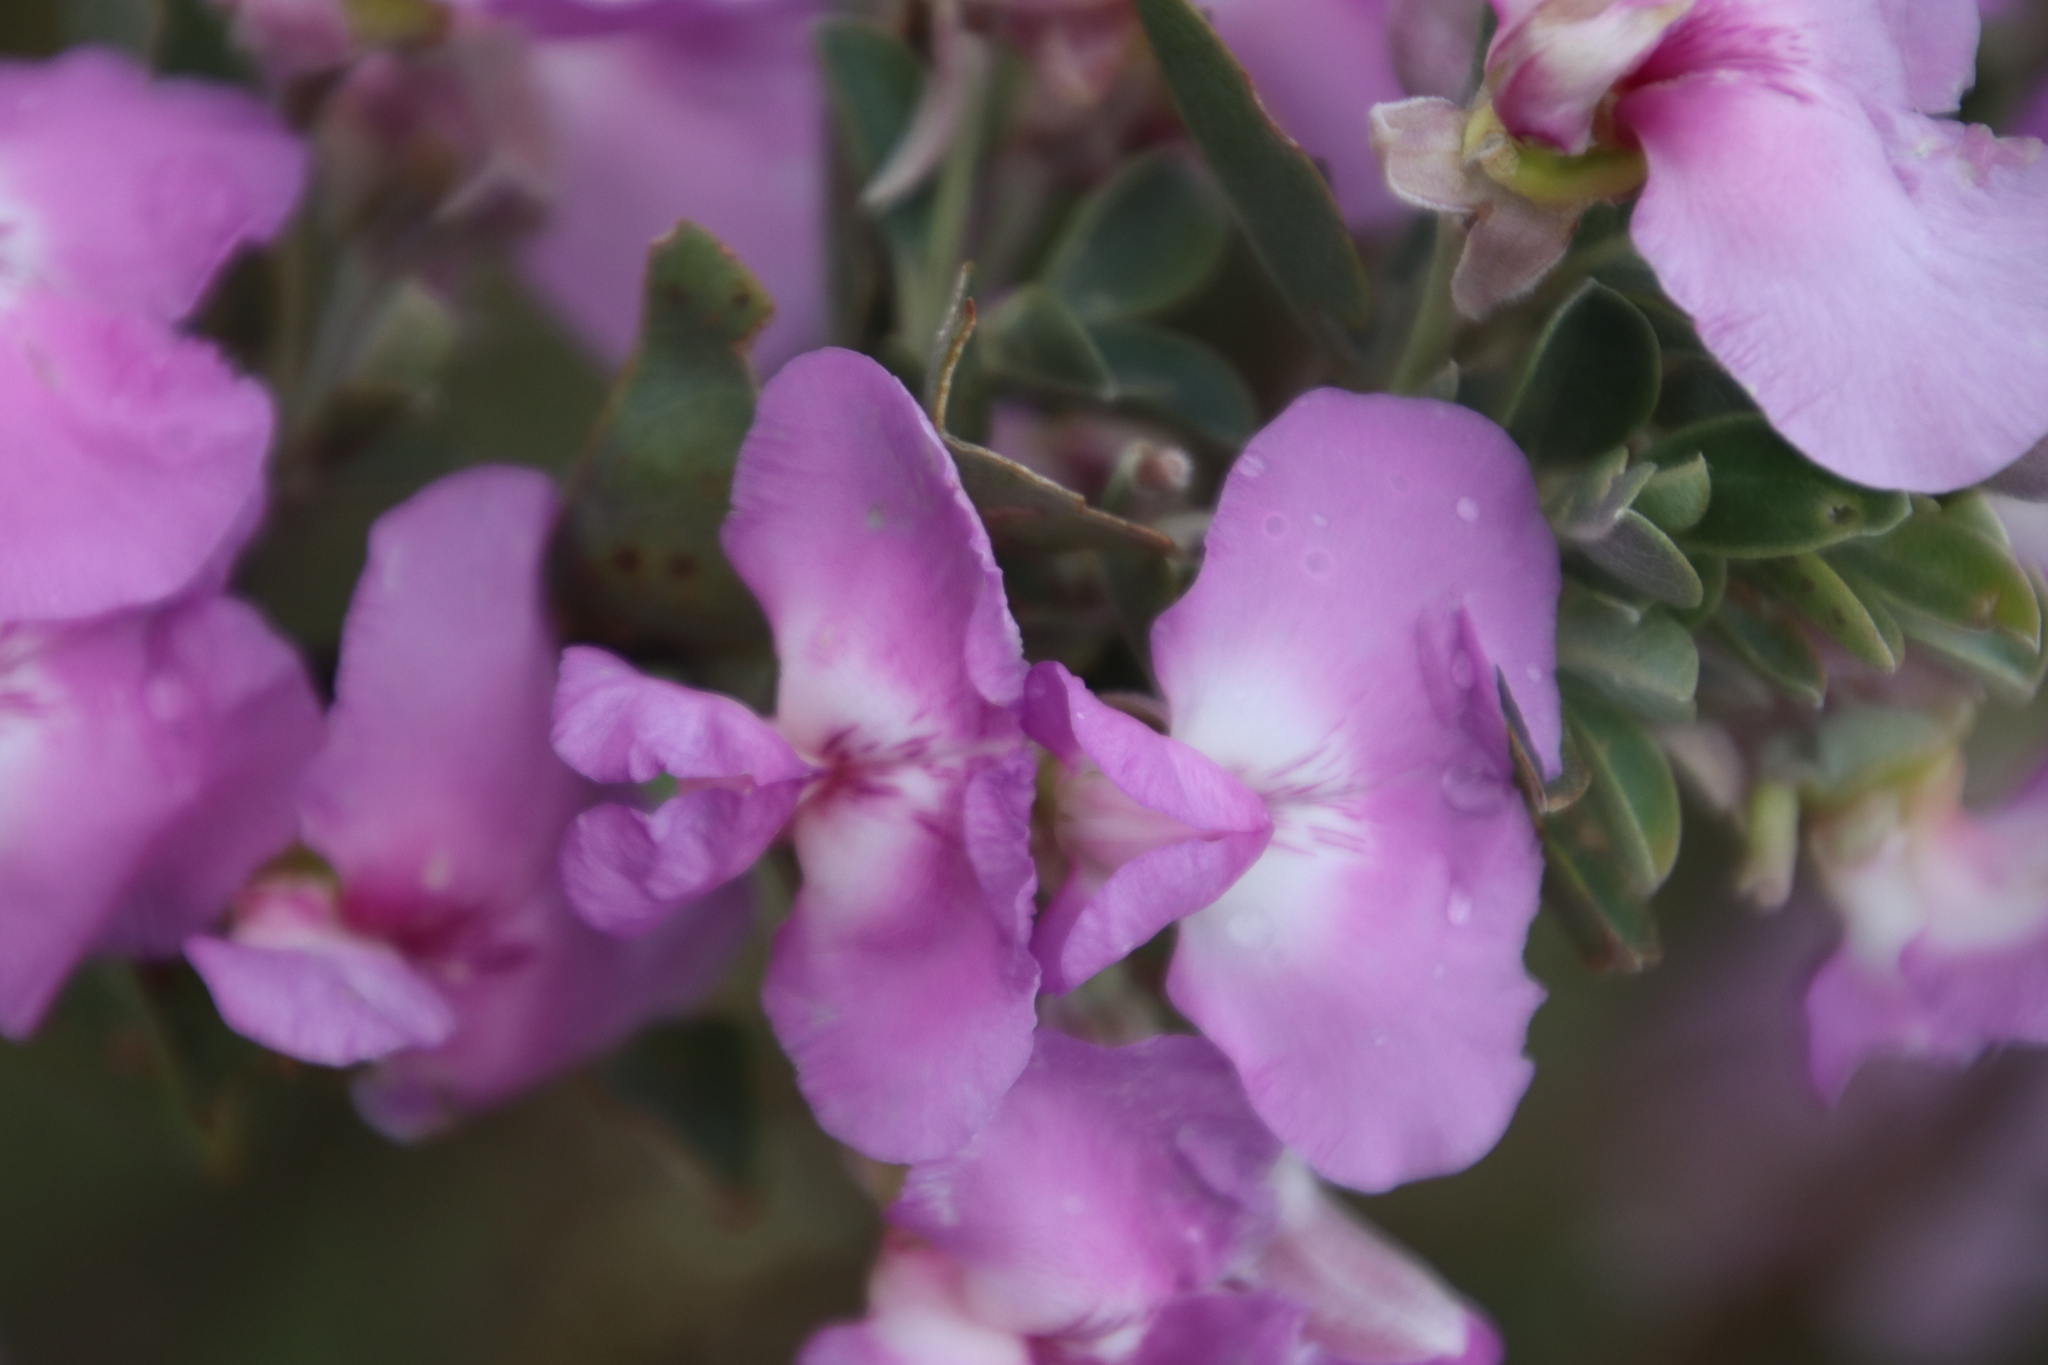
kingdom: Plantae
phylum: Tracheophyta
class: Magnoliopsida
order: Fabales
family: Fabaceae
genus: Podalyria
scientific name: Podalyria calyptrata
